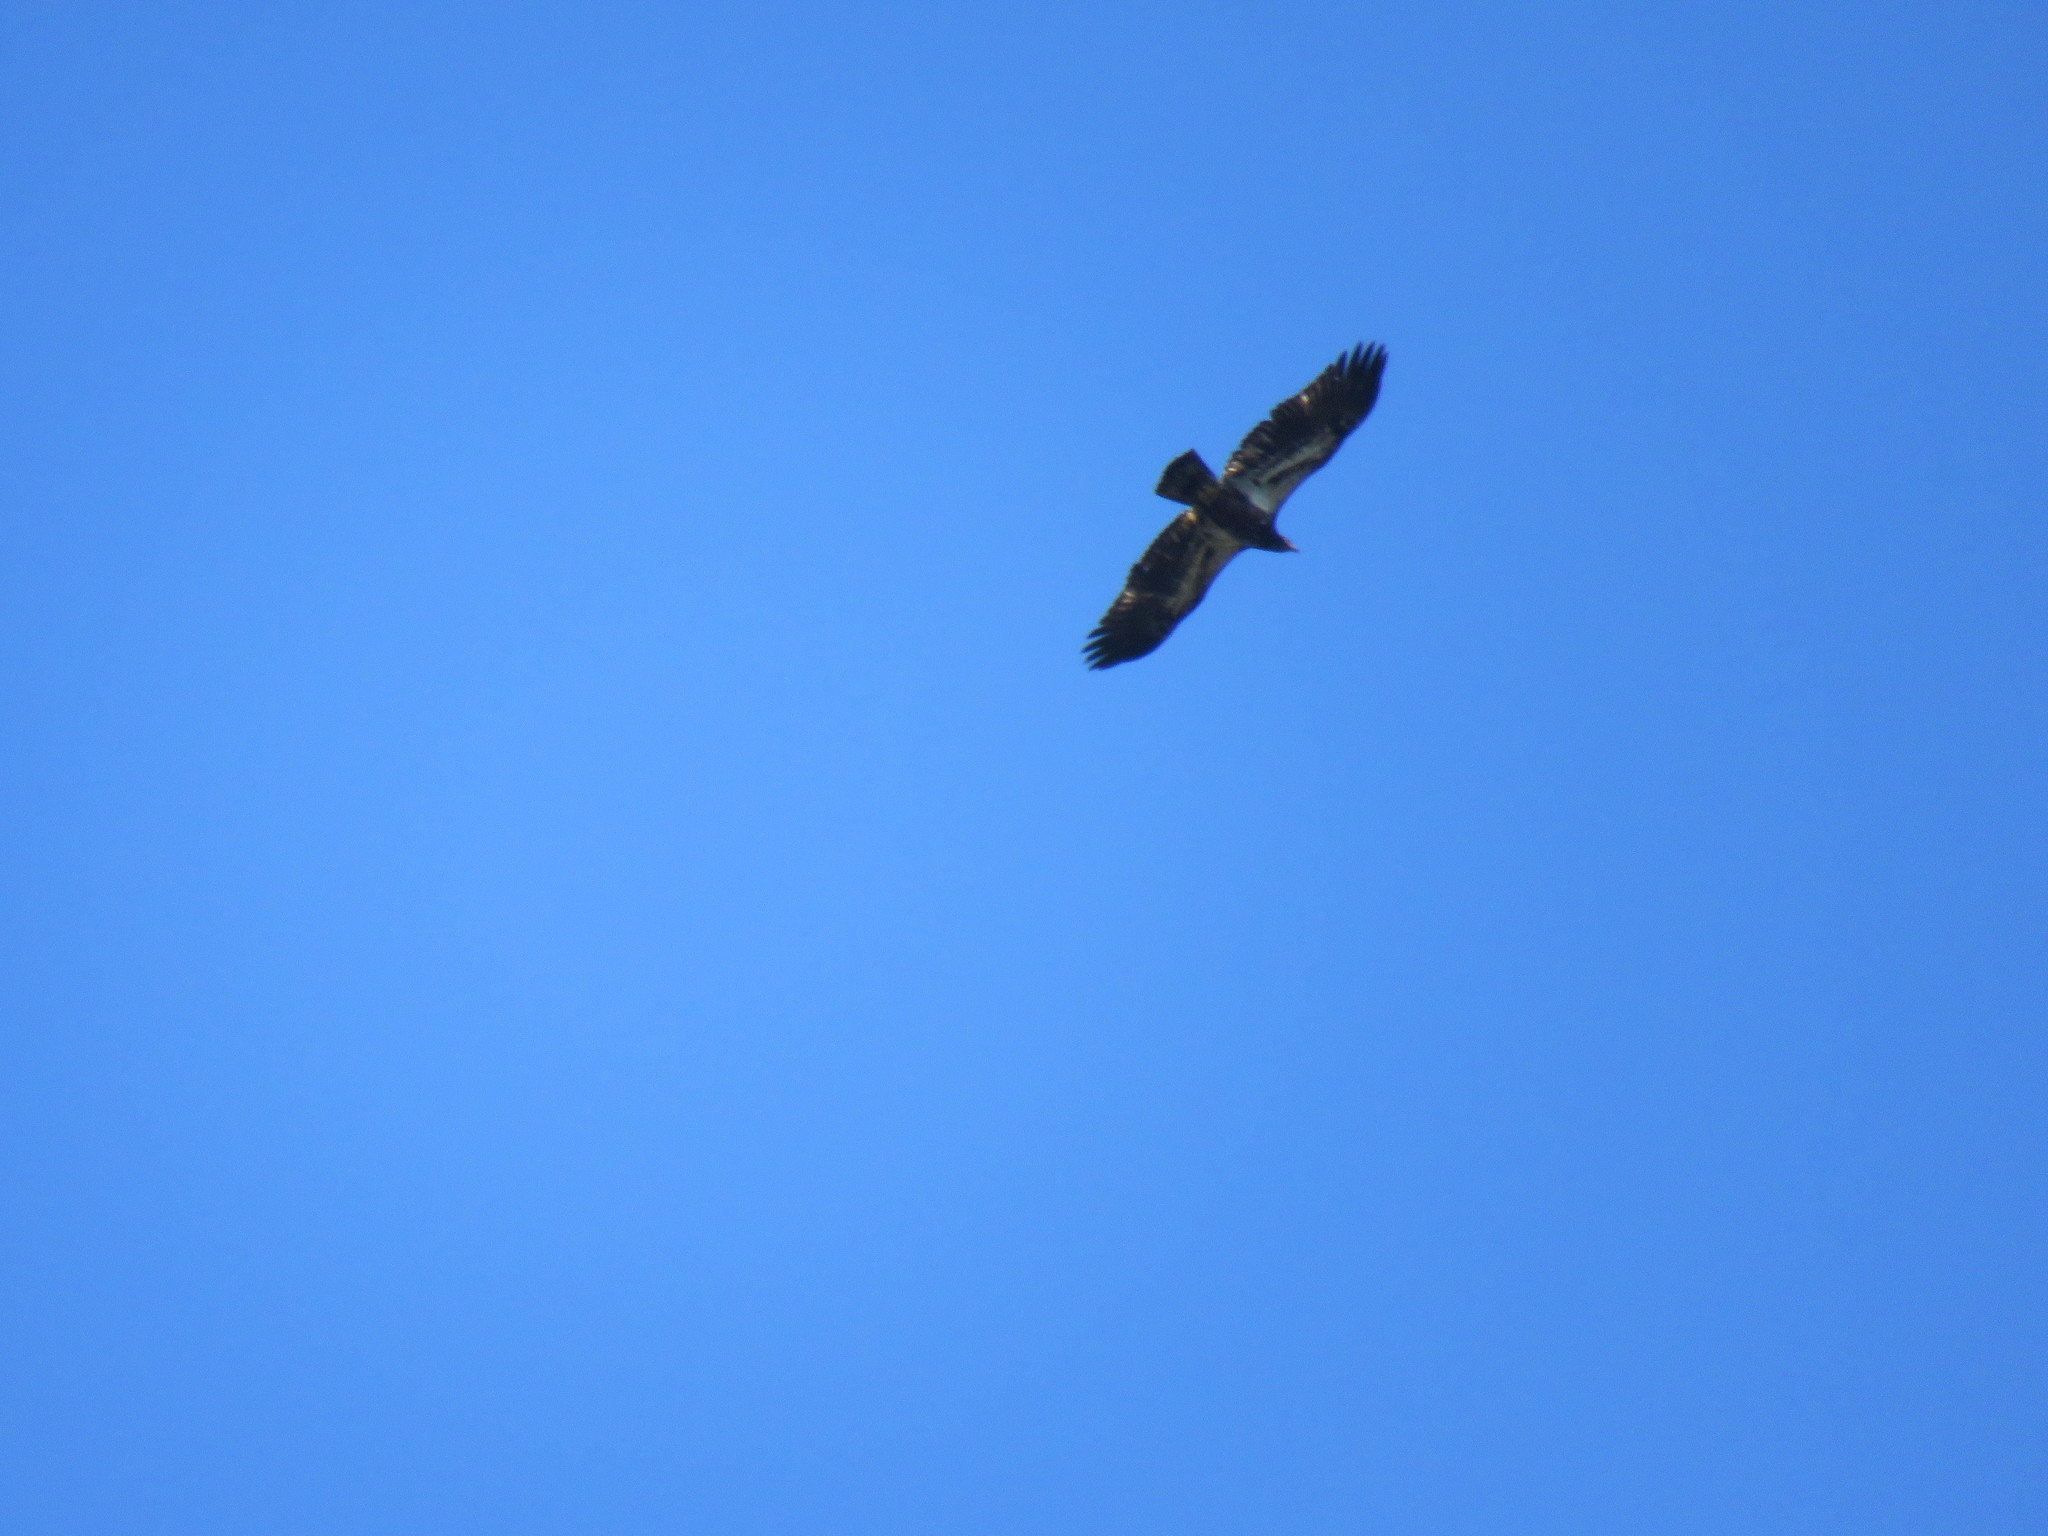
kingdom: Animalia
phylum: Chordata
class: Aves
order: Accipitriformes
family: Accipitridae
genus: Haliaeetus
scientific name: Haliaeetus leucocephalus
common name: Bald eagle
